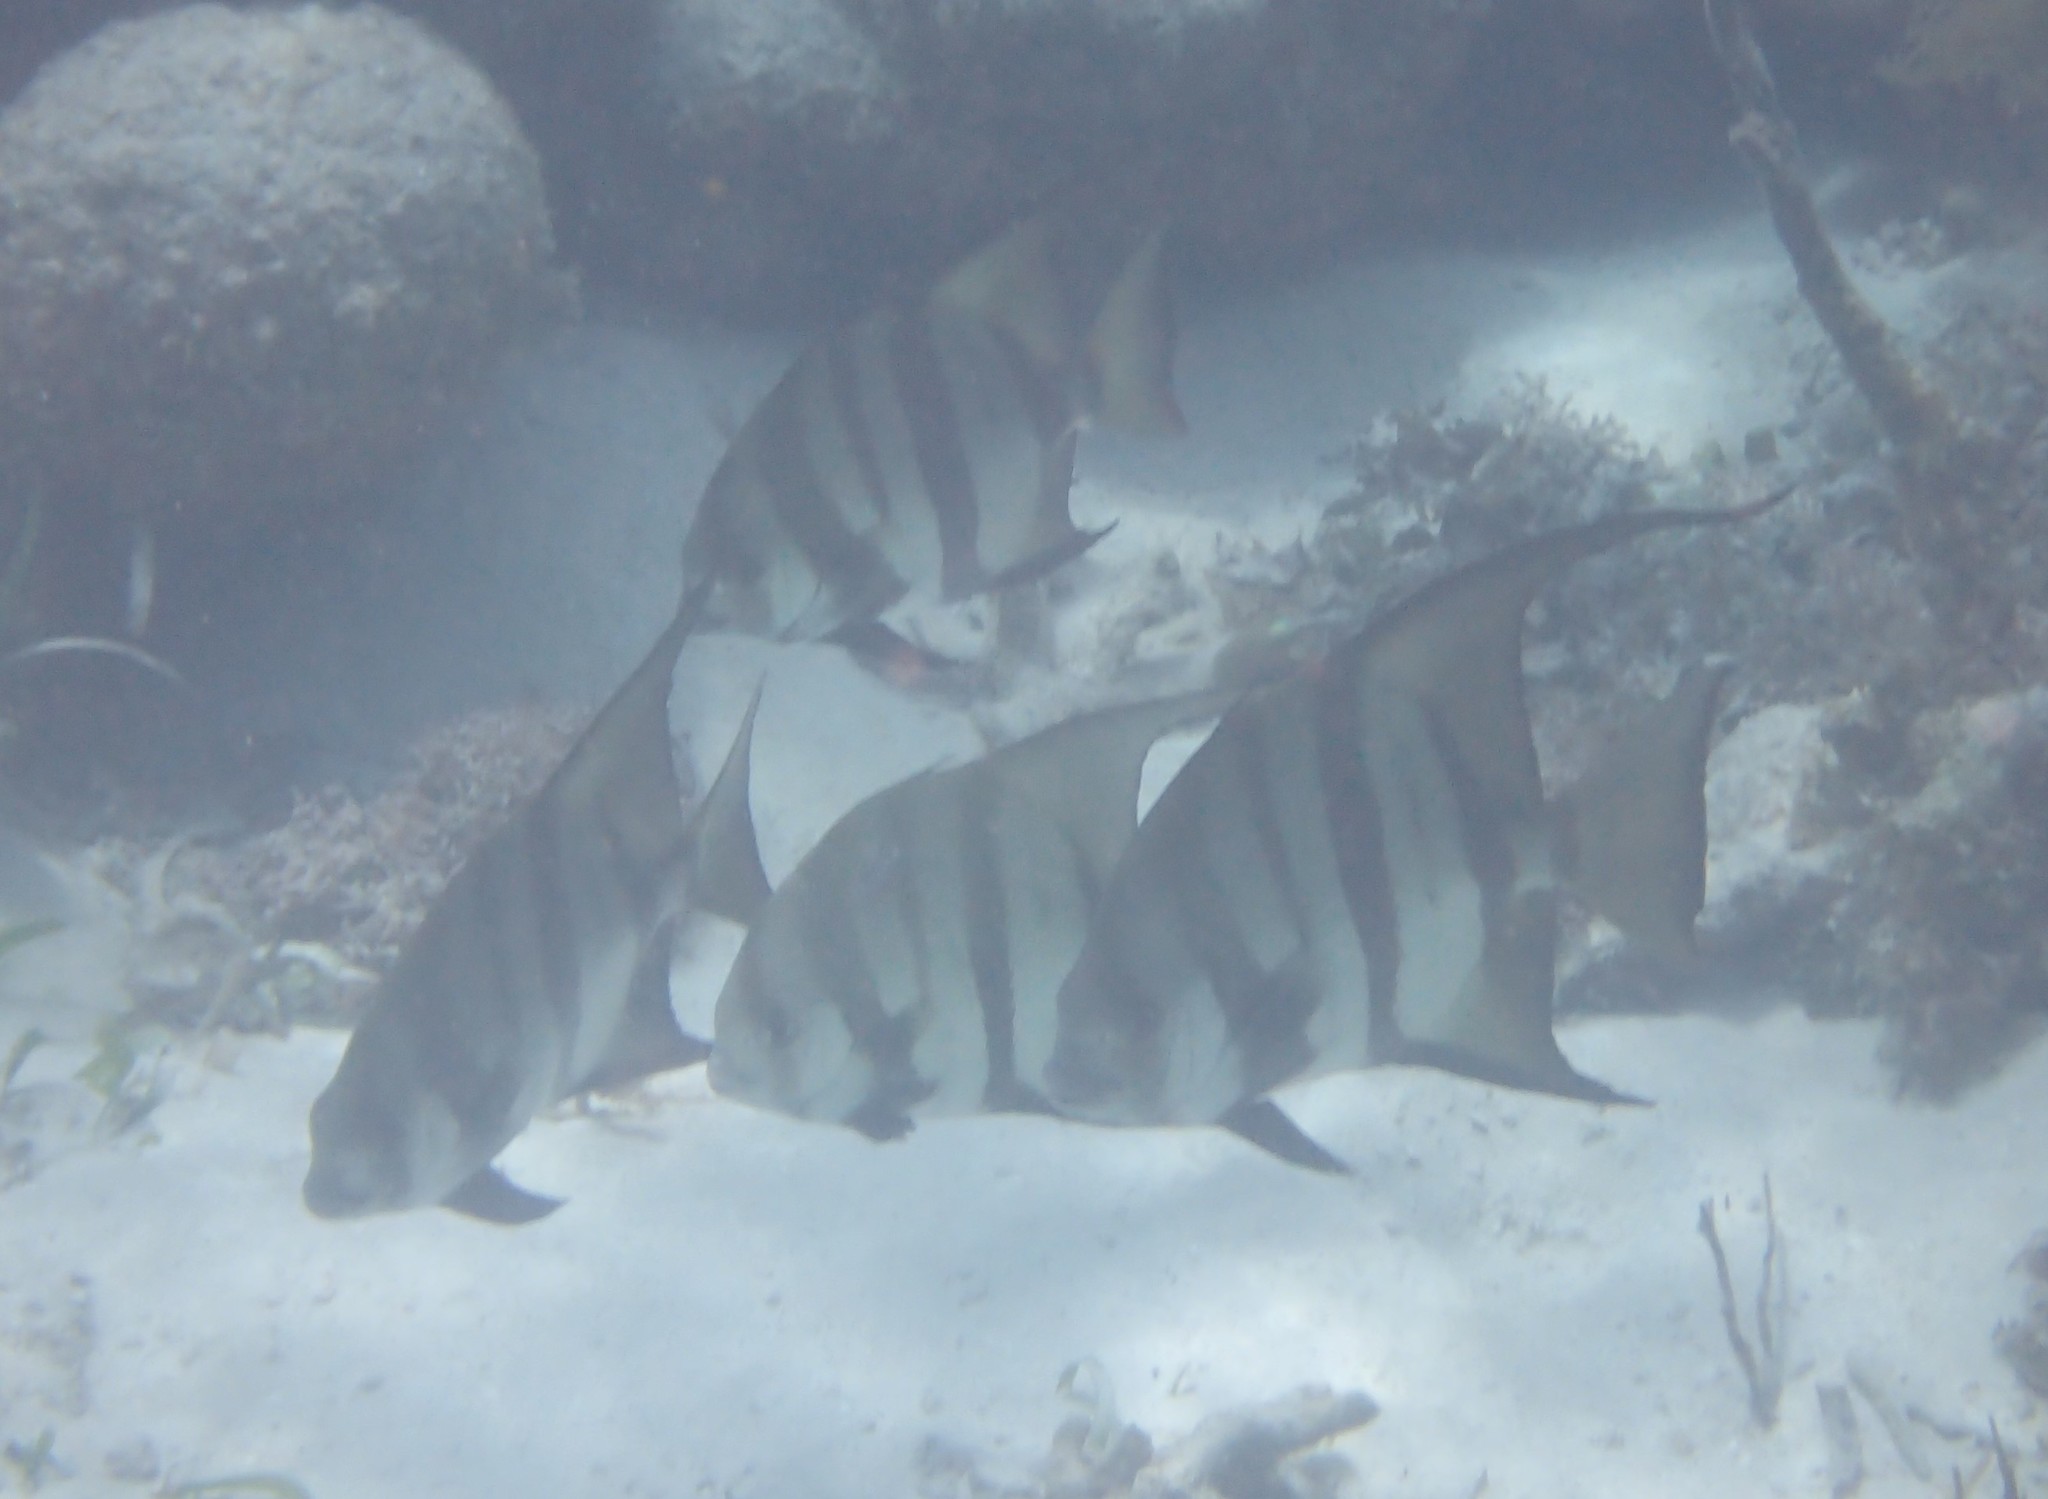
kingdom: Animalia
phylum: Chordata
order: Perciformes
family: Ephippidae
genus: Chaetodipterus
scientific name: Chaetodipterus faber
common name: Ocean cobbler
